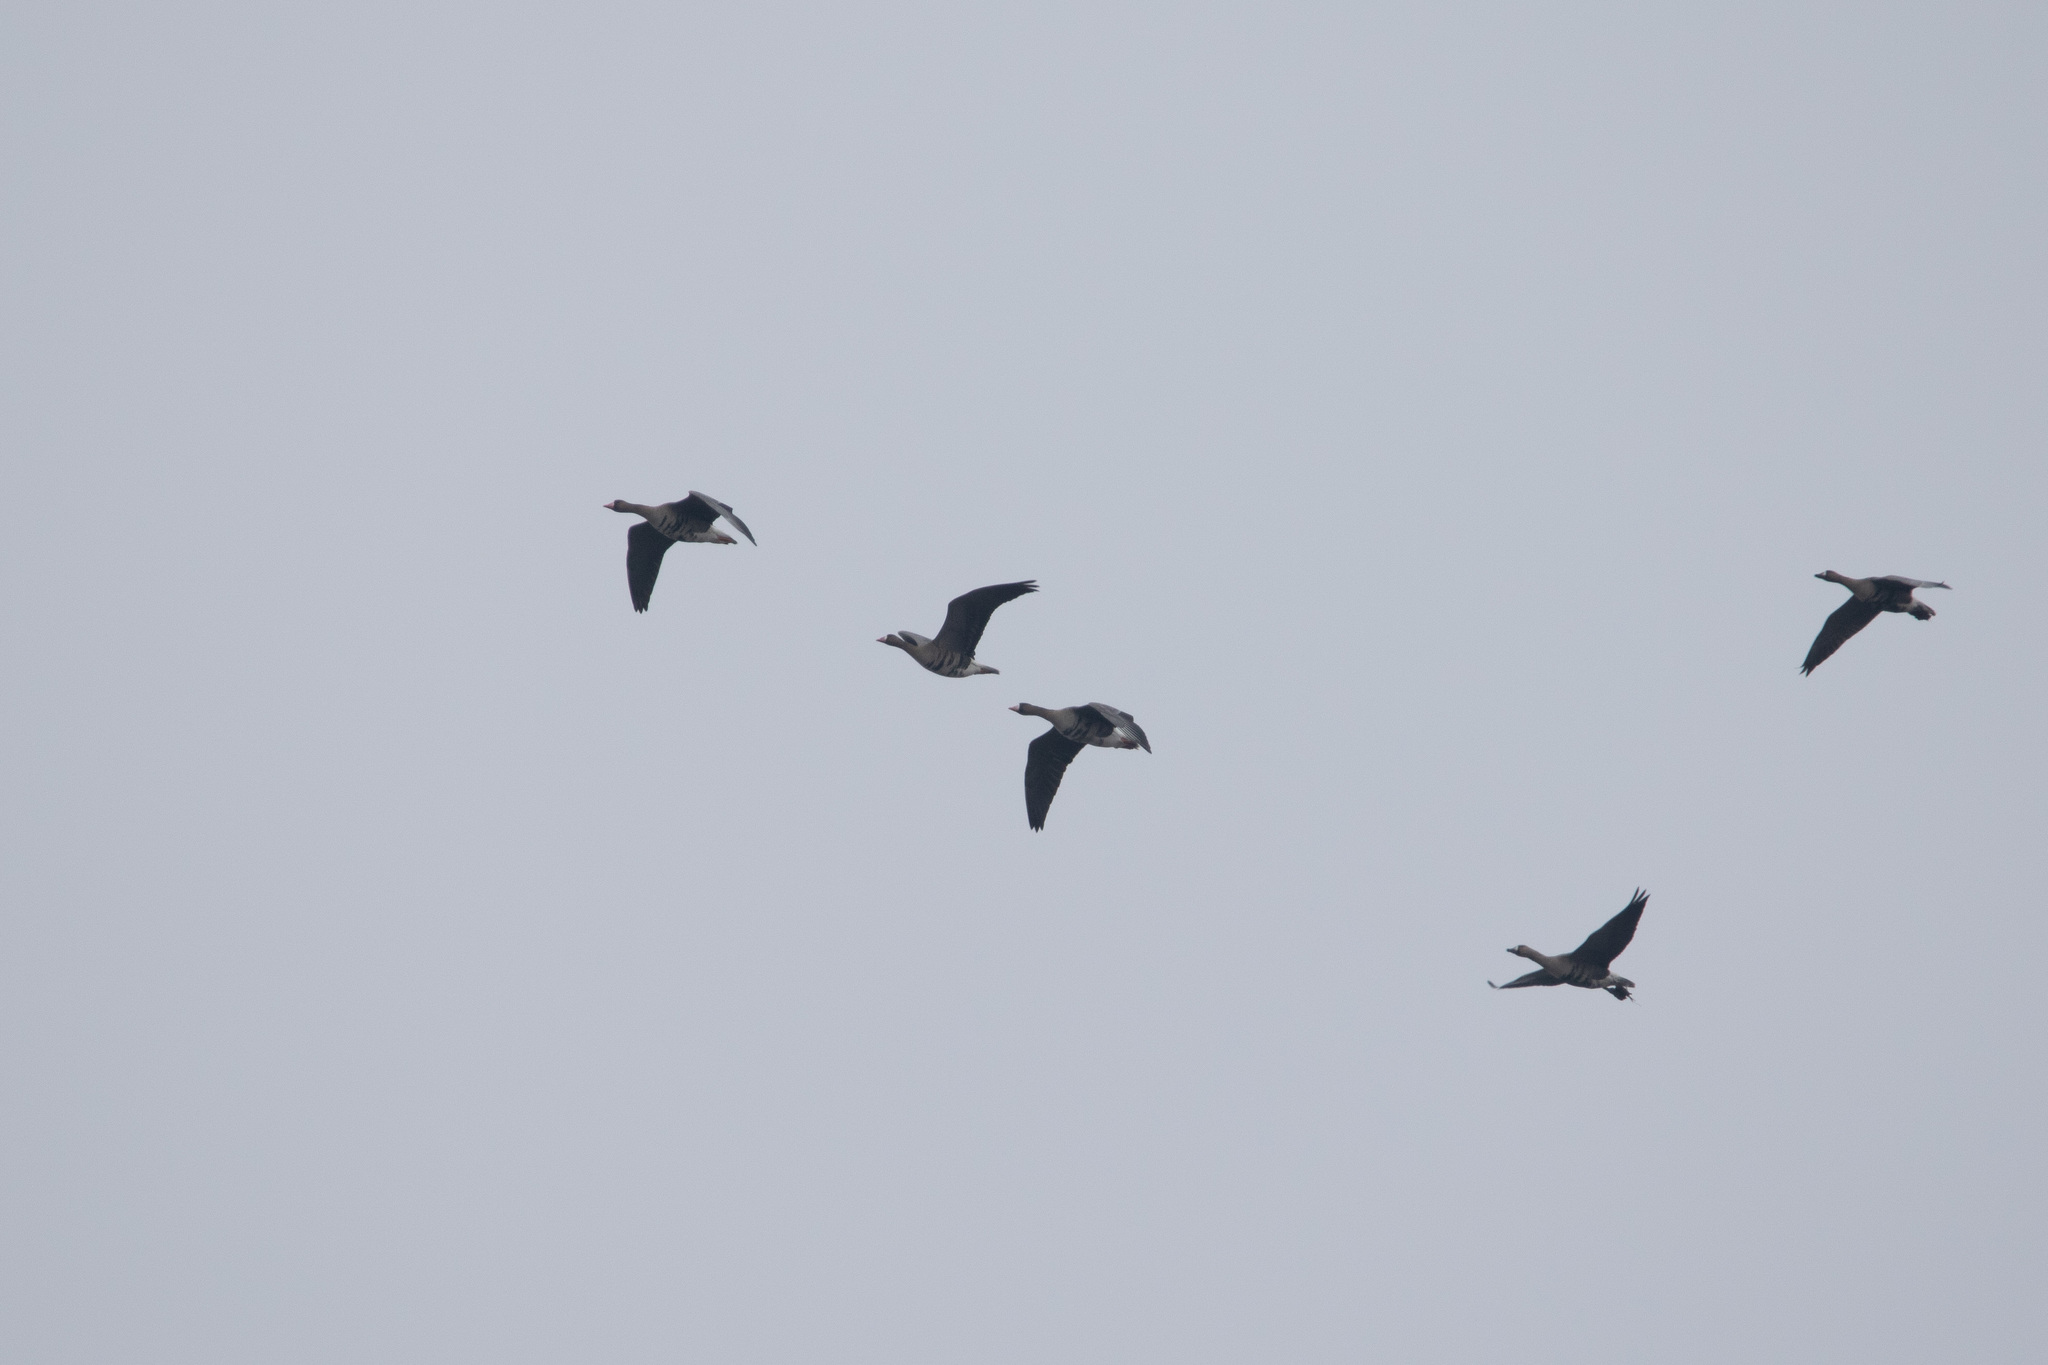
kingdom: Animalia
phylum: Chordata
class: Aves
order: Anseriformes
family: Anatidae
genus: Anser
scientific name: Anser albifrons
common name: Greater white-fronted goose
